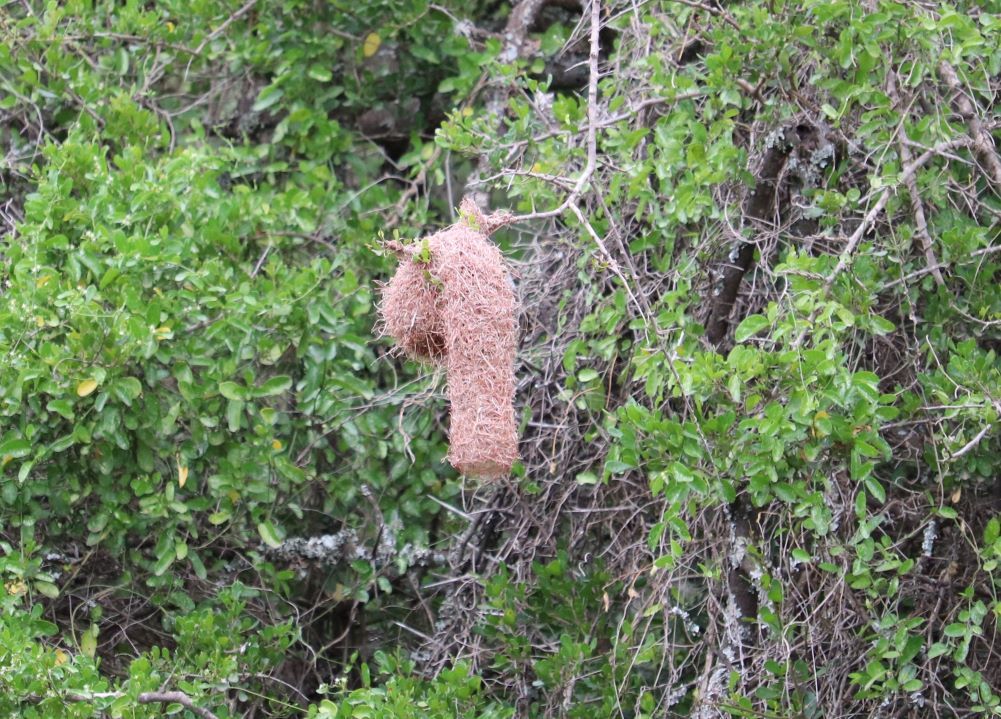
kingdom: Animalia
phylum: Chordata
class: Aves
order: Passeriformes
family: Ploceidae
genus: Ploceus
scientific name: Ploceus ocularis
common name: Spectacled weaver
